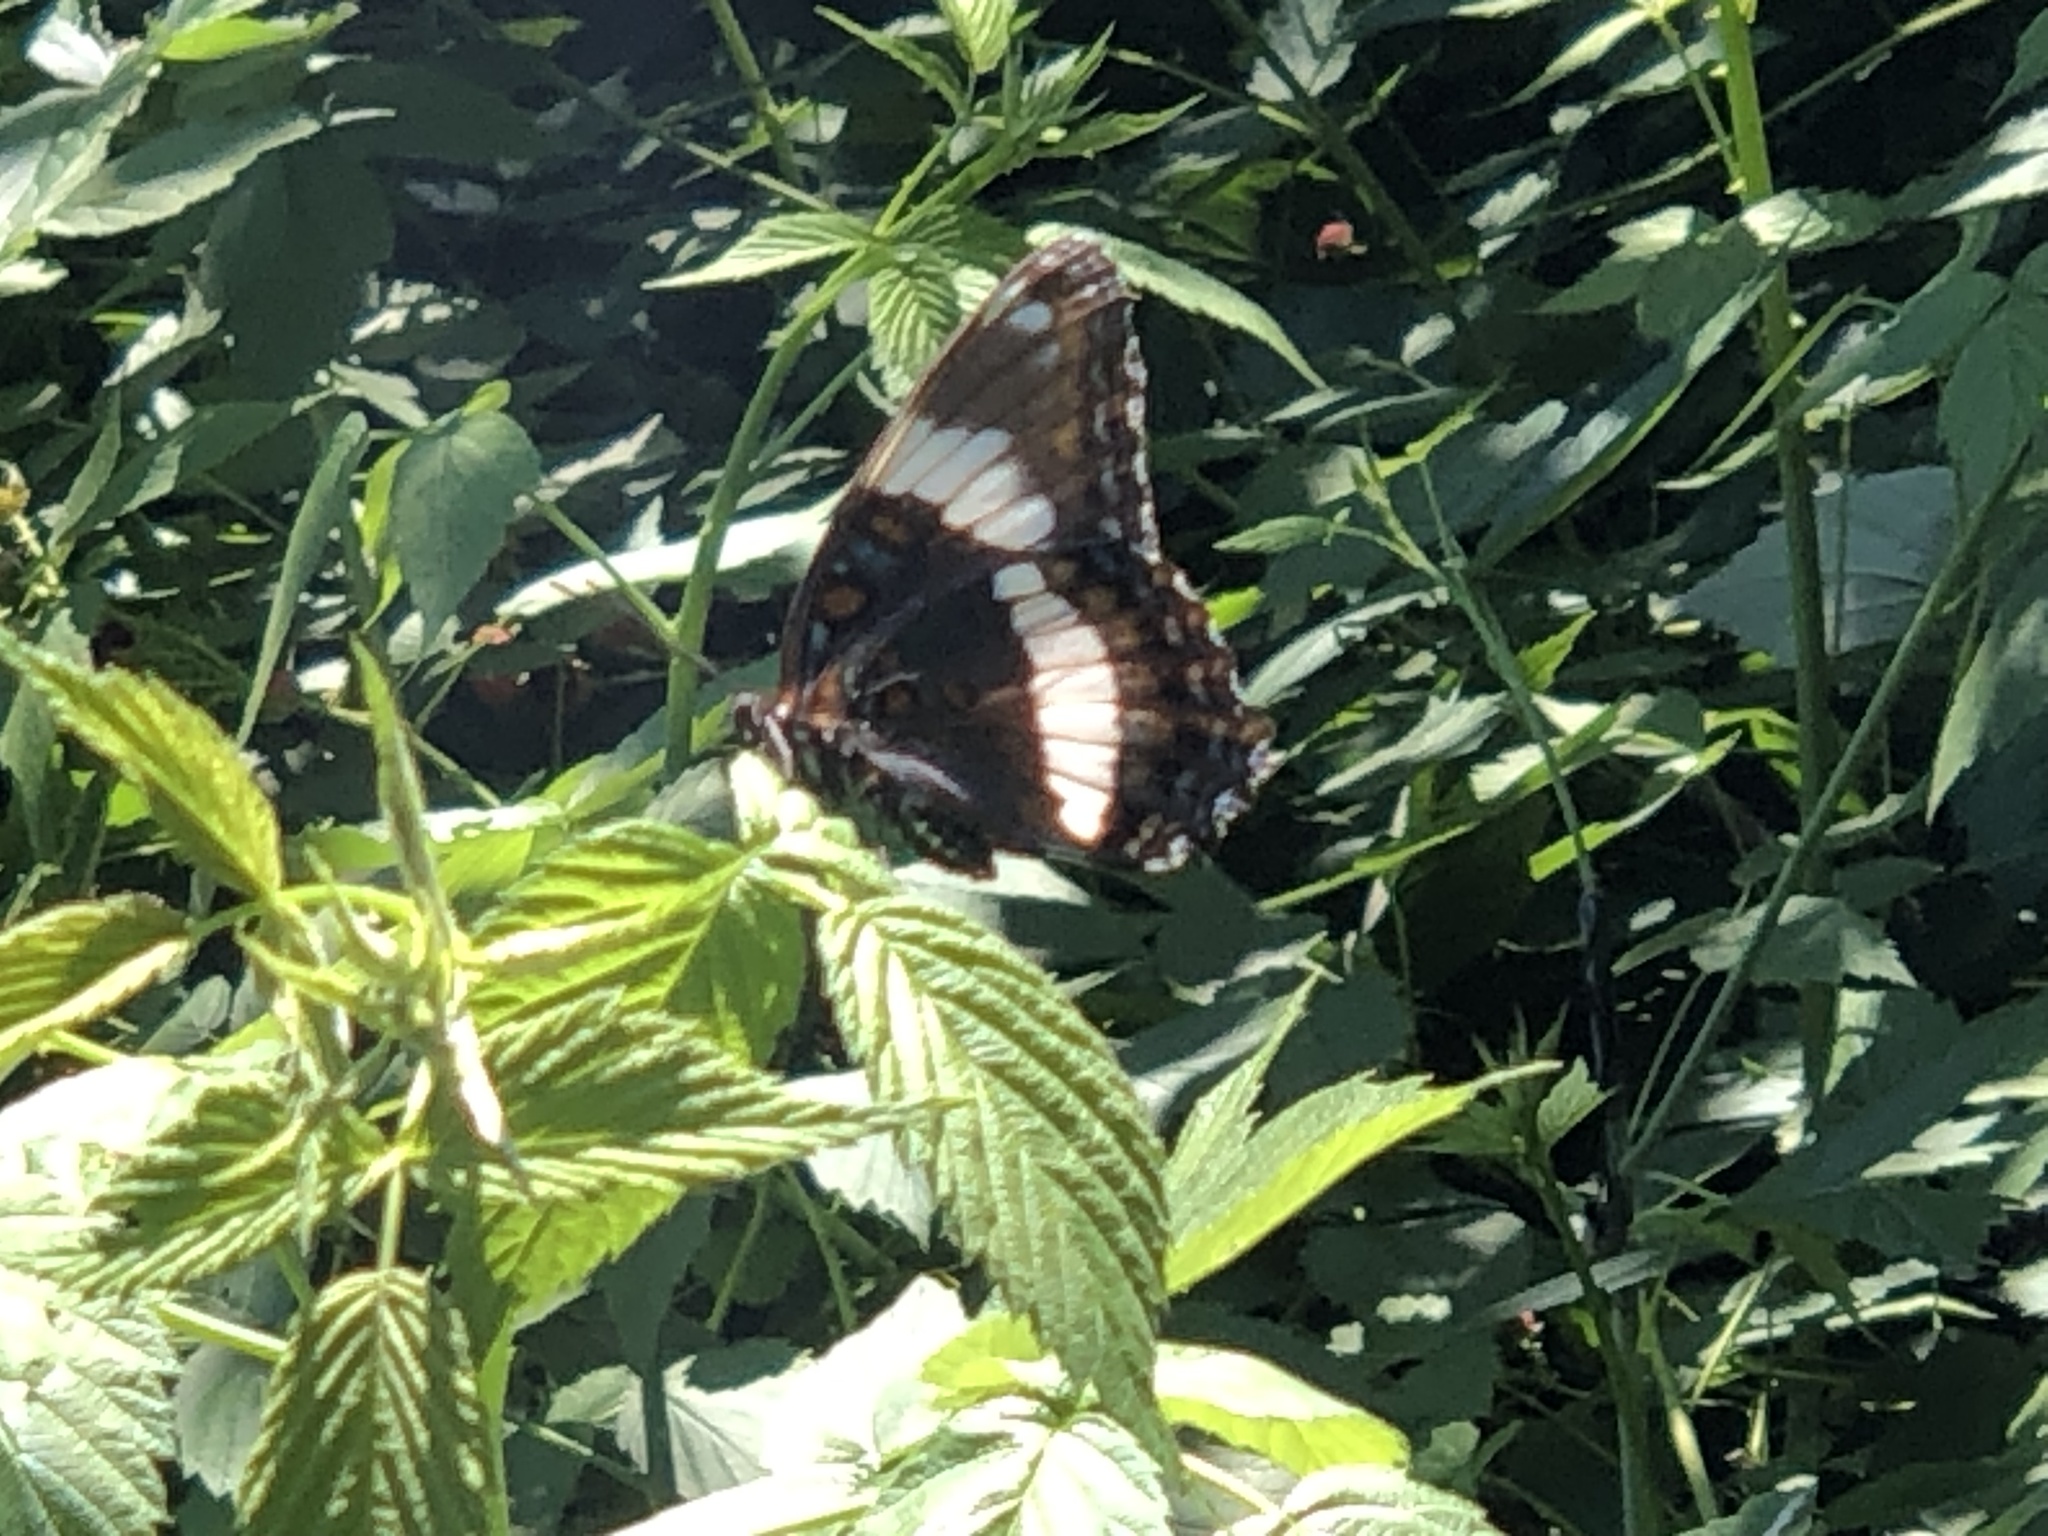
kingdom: Animalia
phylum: Arthropoda
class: Insecta
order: Lepidoptera
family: Nymphalidae
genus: Limenitis
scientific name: Limenitis arthemis
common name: Red-spotted admiral
